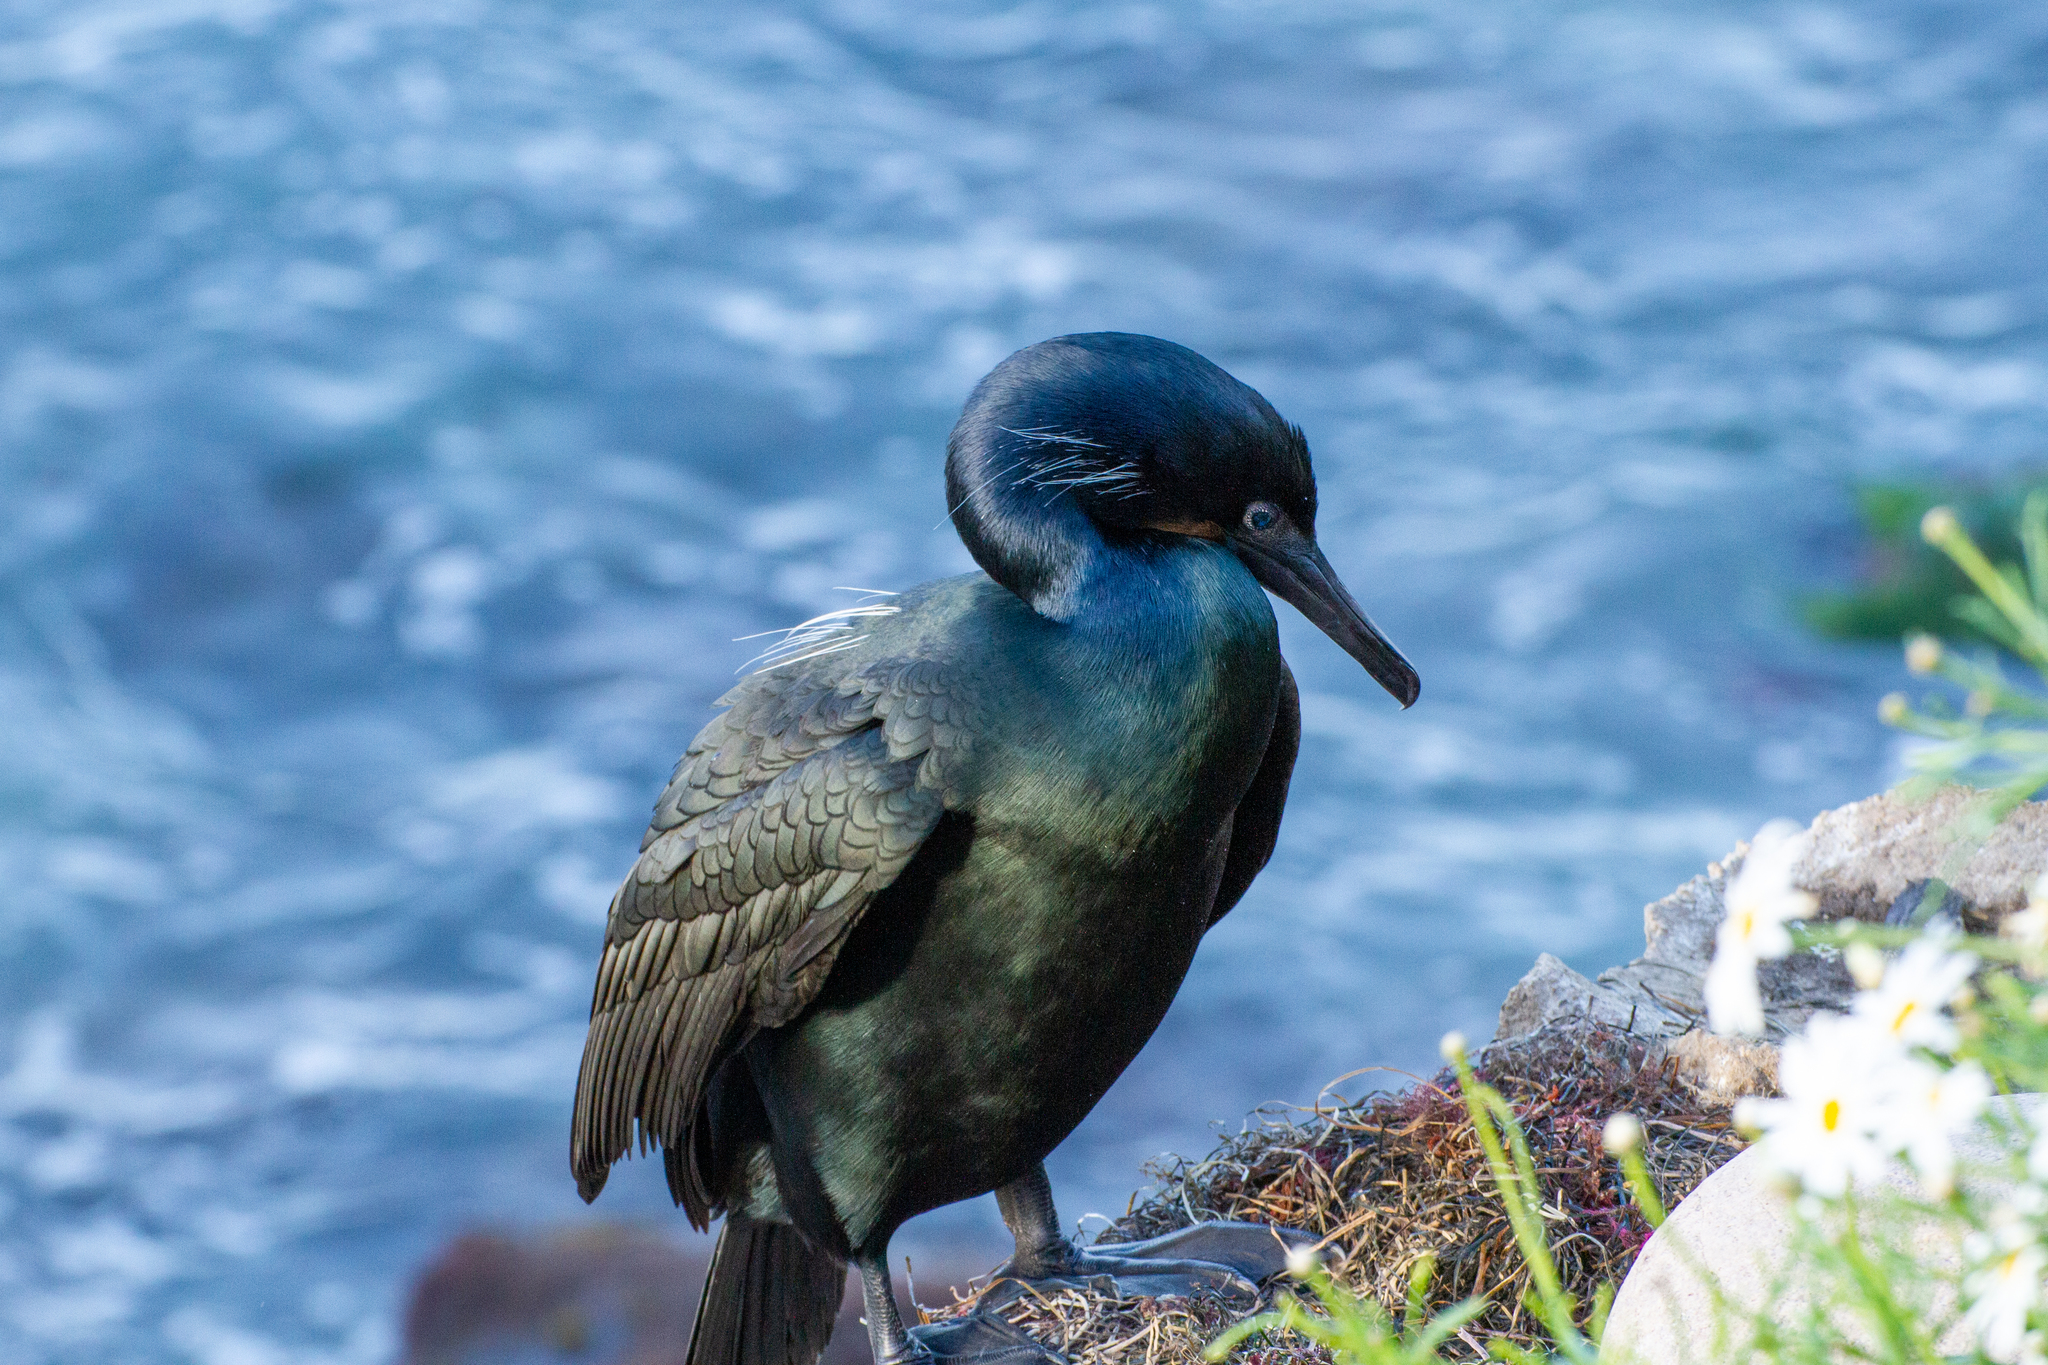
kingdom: Animalia
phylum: Chordata
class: Aves
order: Suliformes
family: Phalacrocoracidae
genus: Urile
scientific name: Urile penicillatus
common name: Brandt's cormorant
